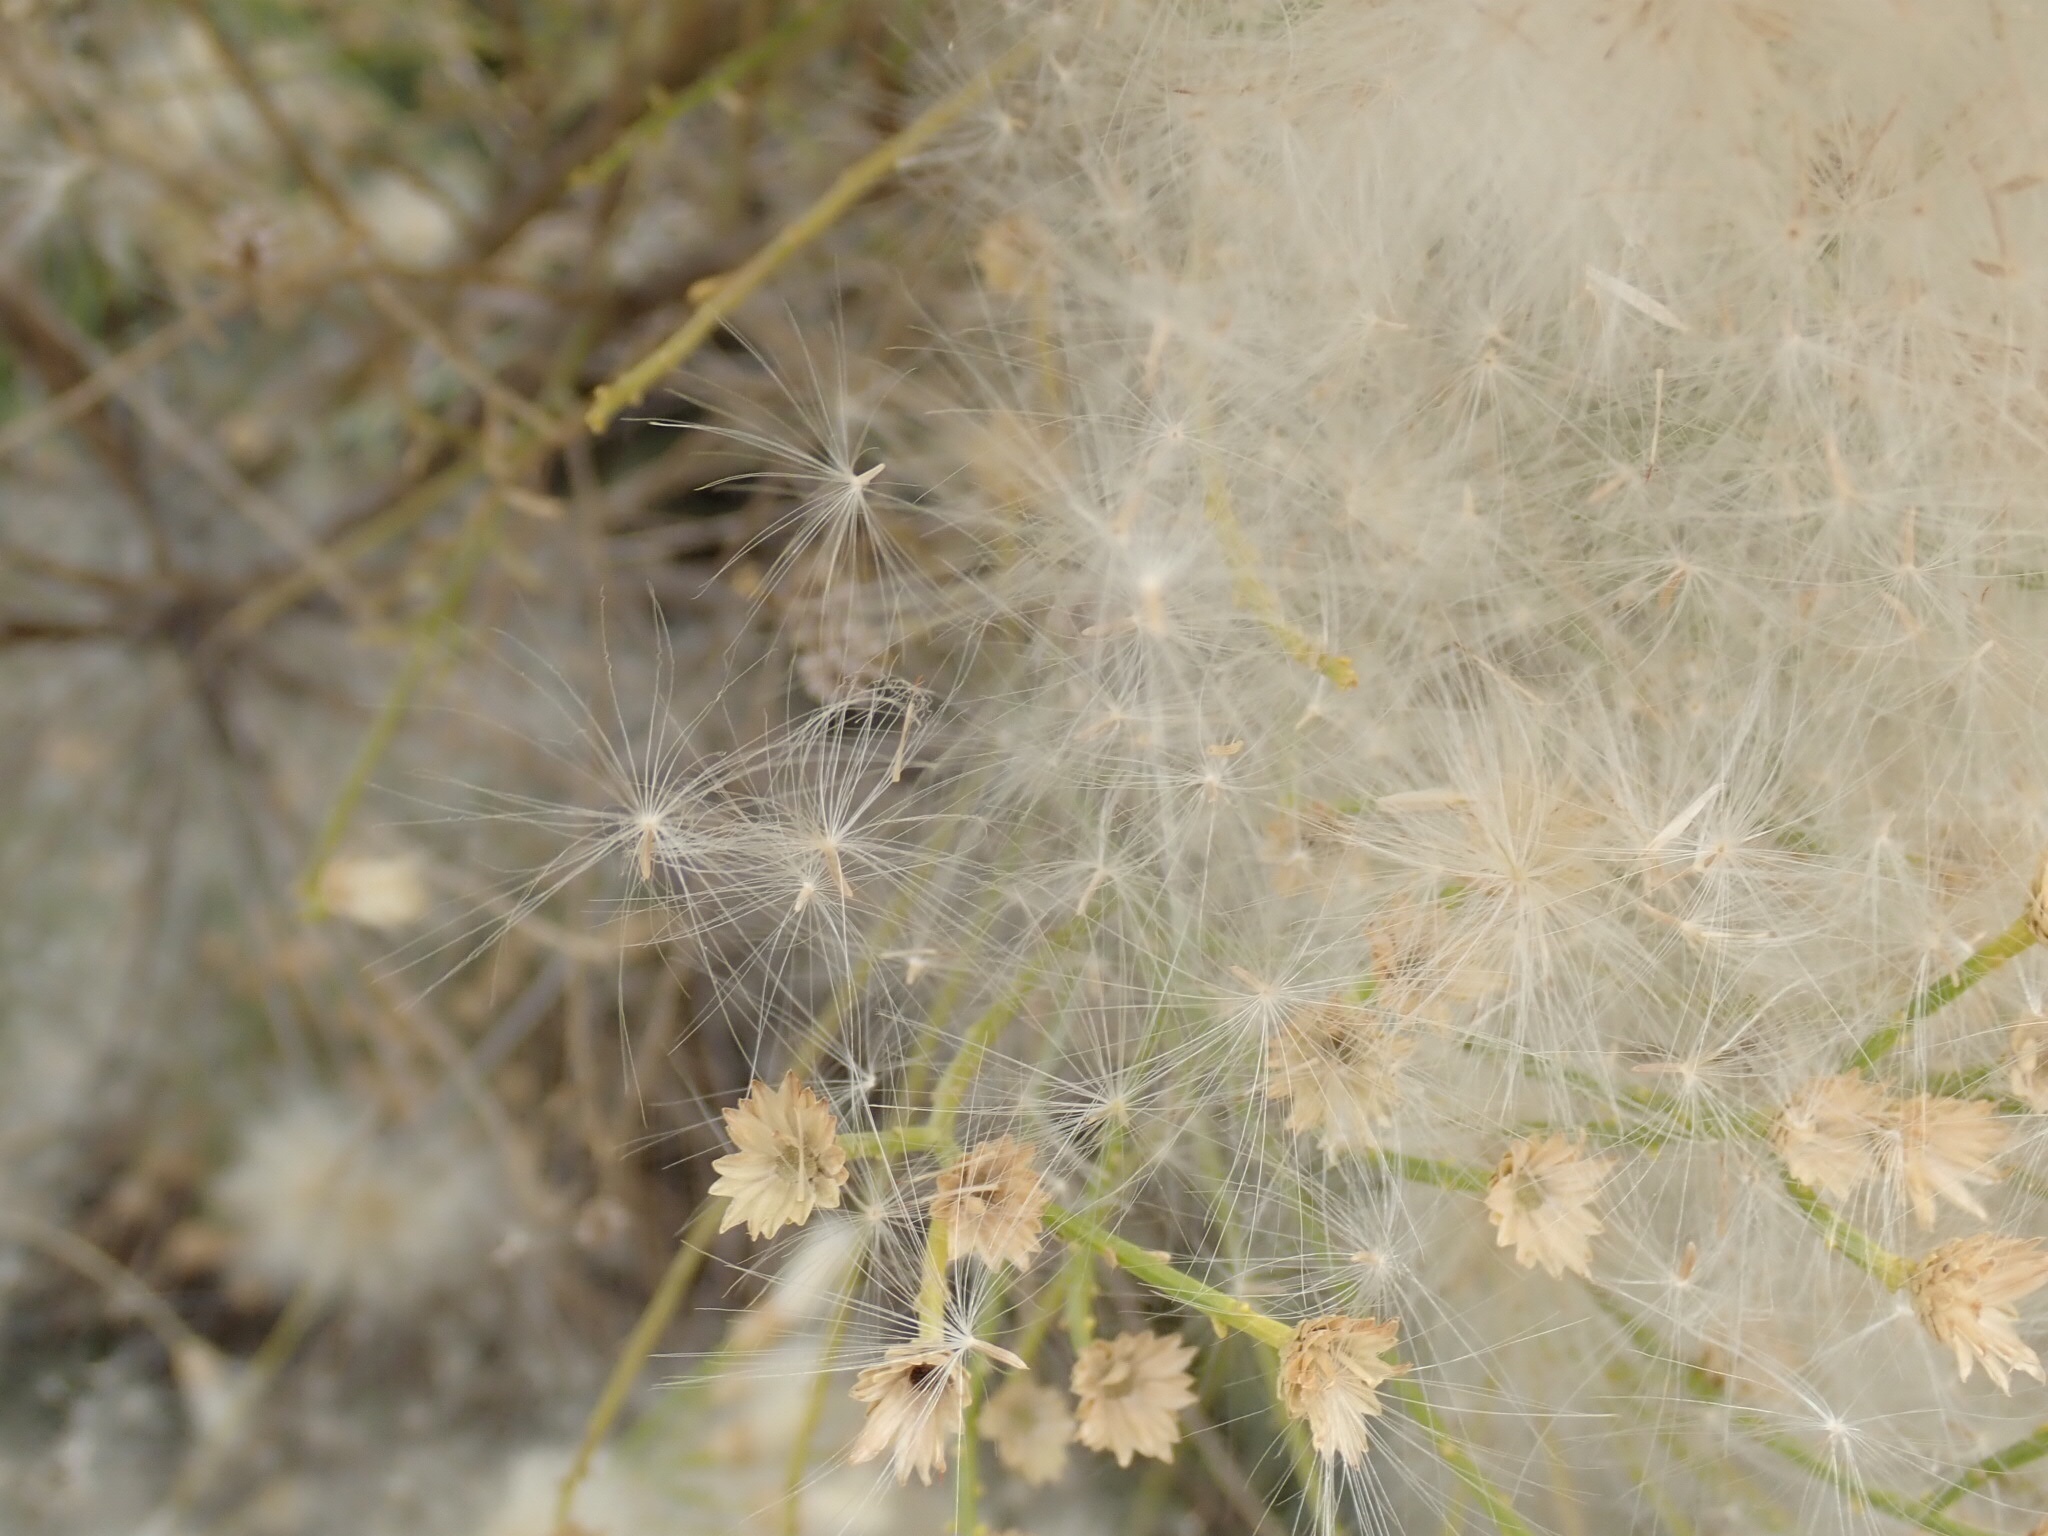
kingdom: Plantae
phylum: Tracheophyta
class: Magnoliopsida
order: Asterales
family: Asteraceae
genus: Baccharis
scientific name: Baccharis sarothroides
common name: Desert-broom
